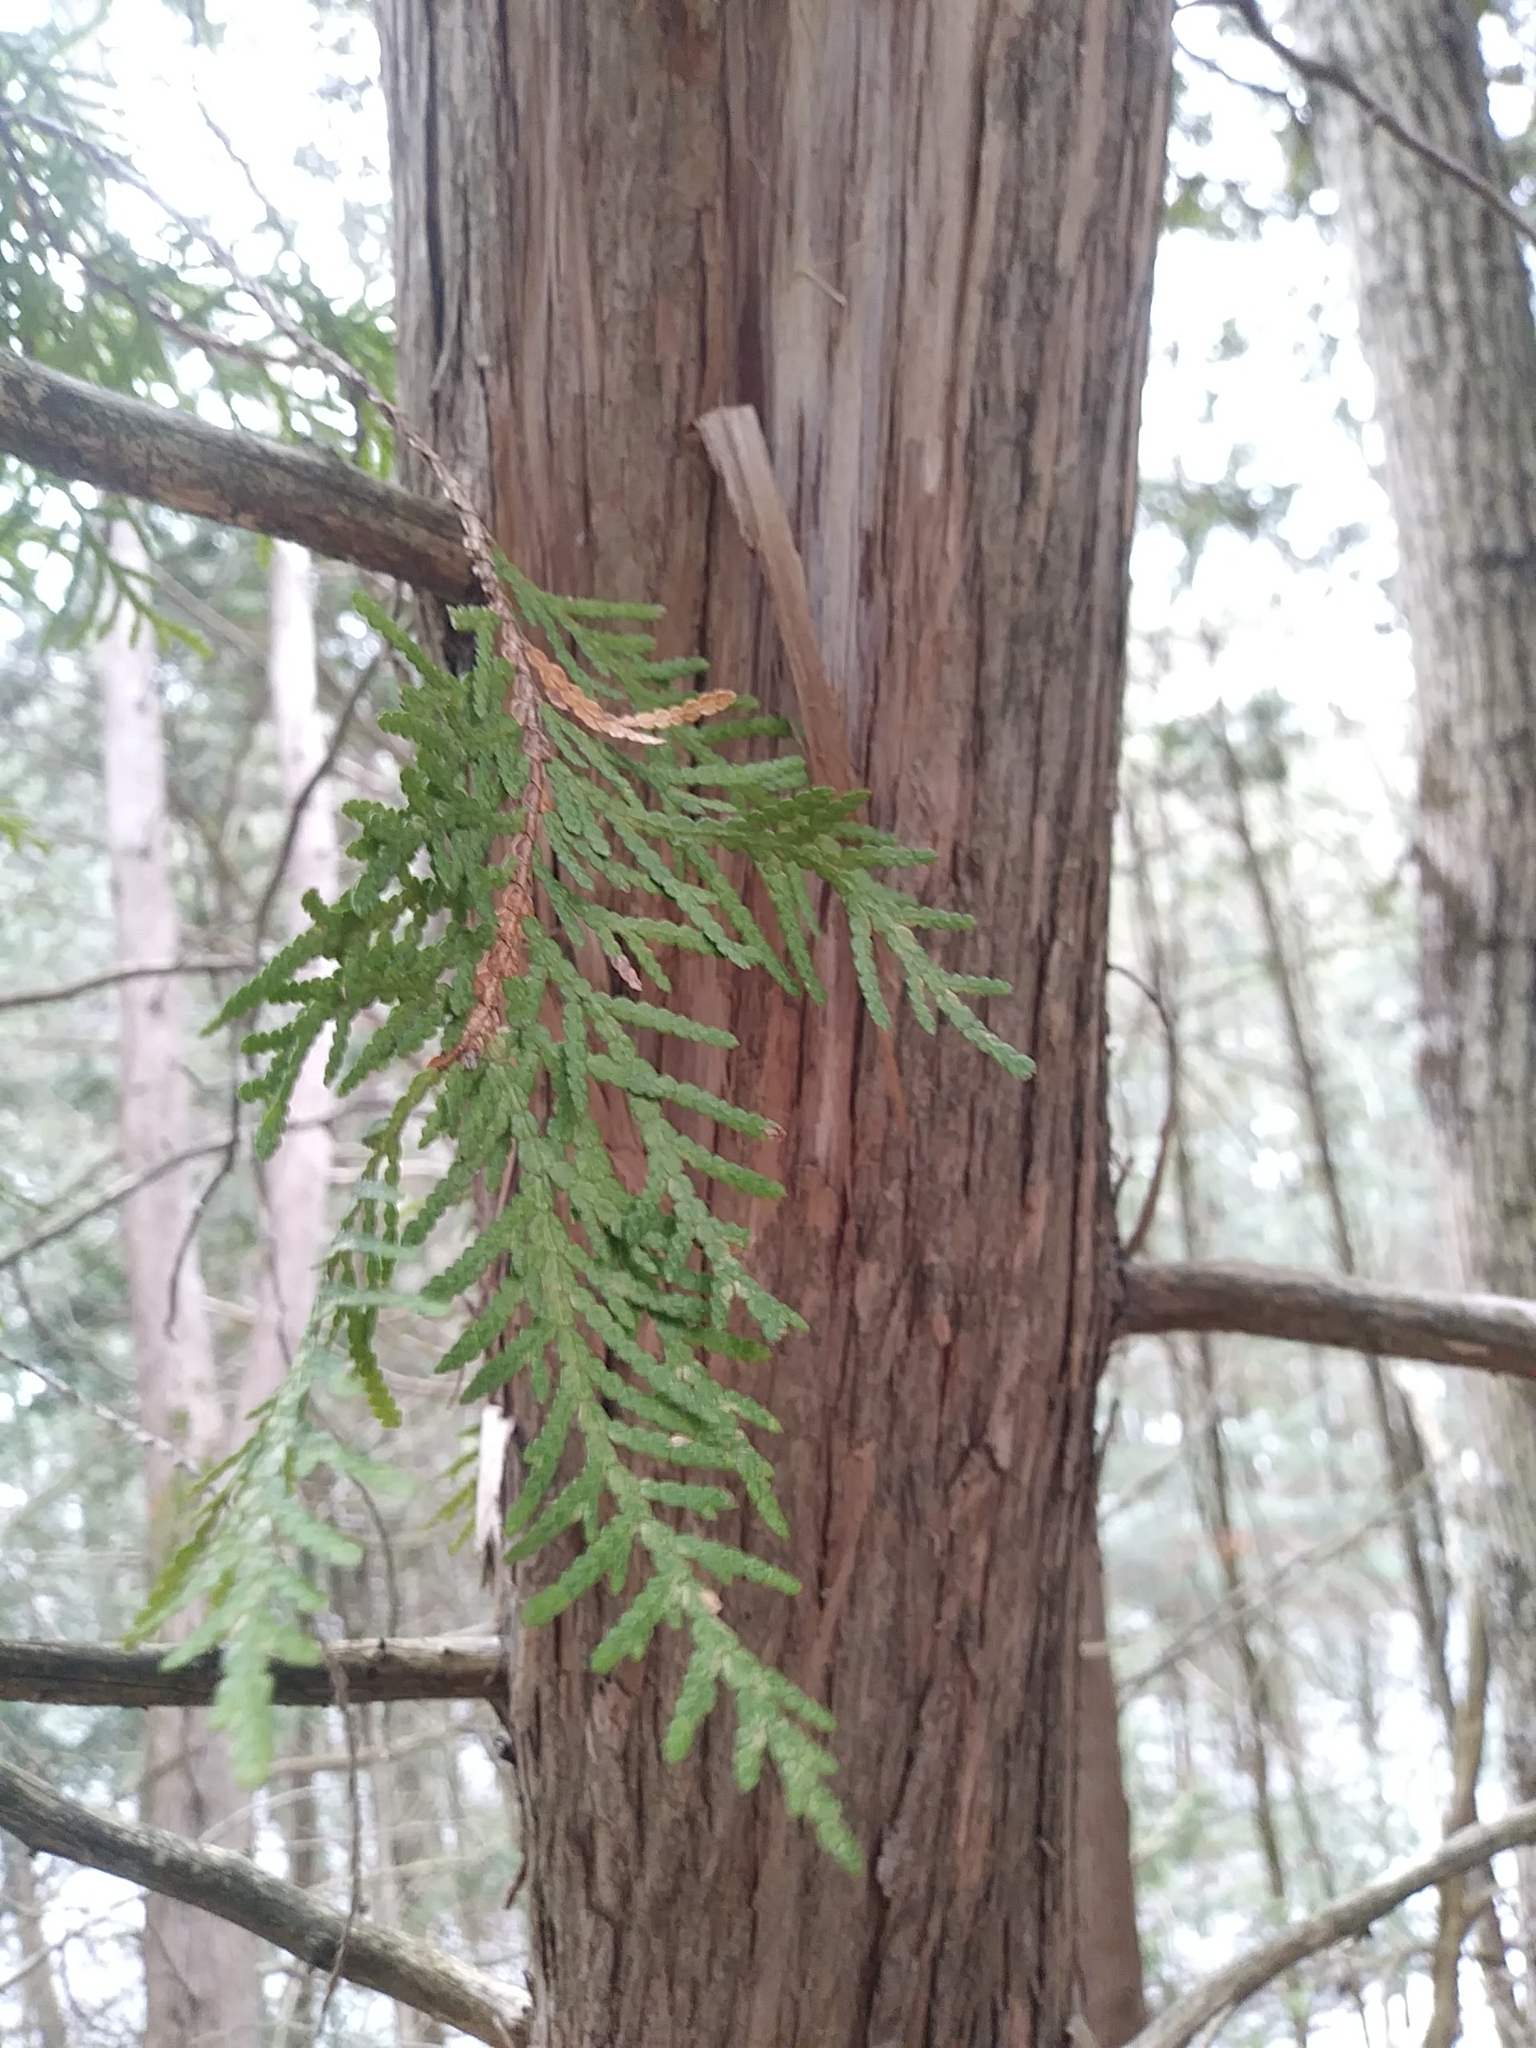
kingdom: Plantae
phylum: Tracheophyta
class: Pinopsida
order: Pinales
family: Cupressaceae
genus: Thuja
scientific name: Thuja occidentalis
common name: Northern white-cedar
